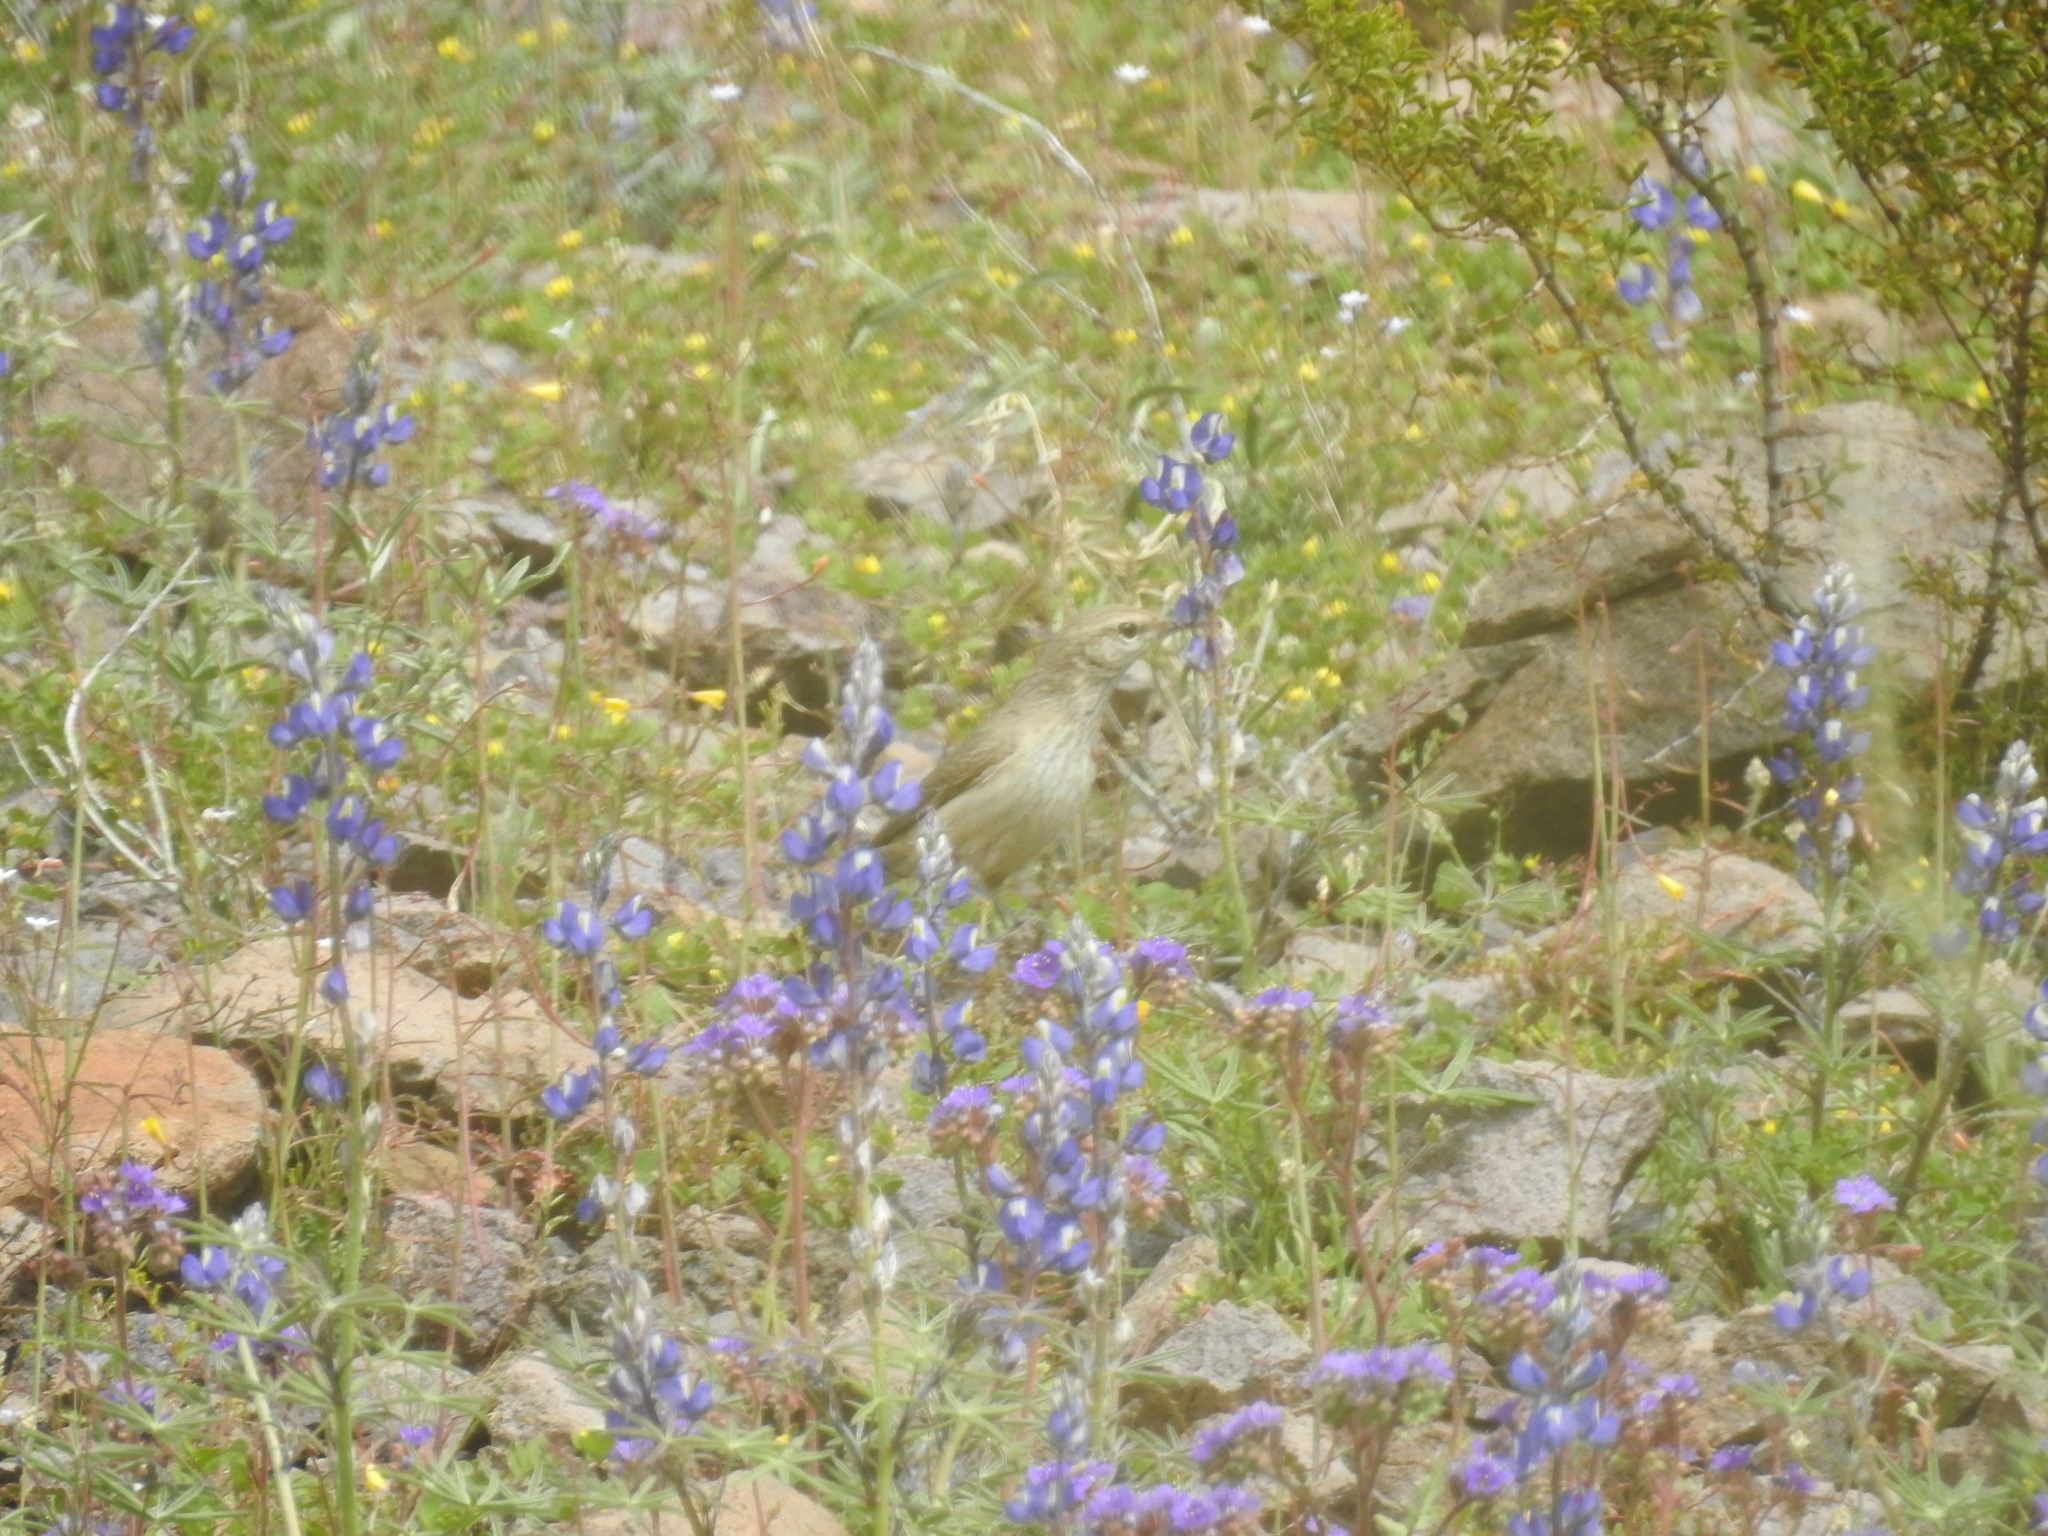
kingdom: Animalia
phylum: Chordata
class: Aves
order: Passeriformes
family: Troglodytidae
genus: Salpinctes
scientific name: Salpinctes obsoletus
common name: Rock wren
